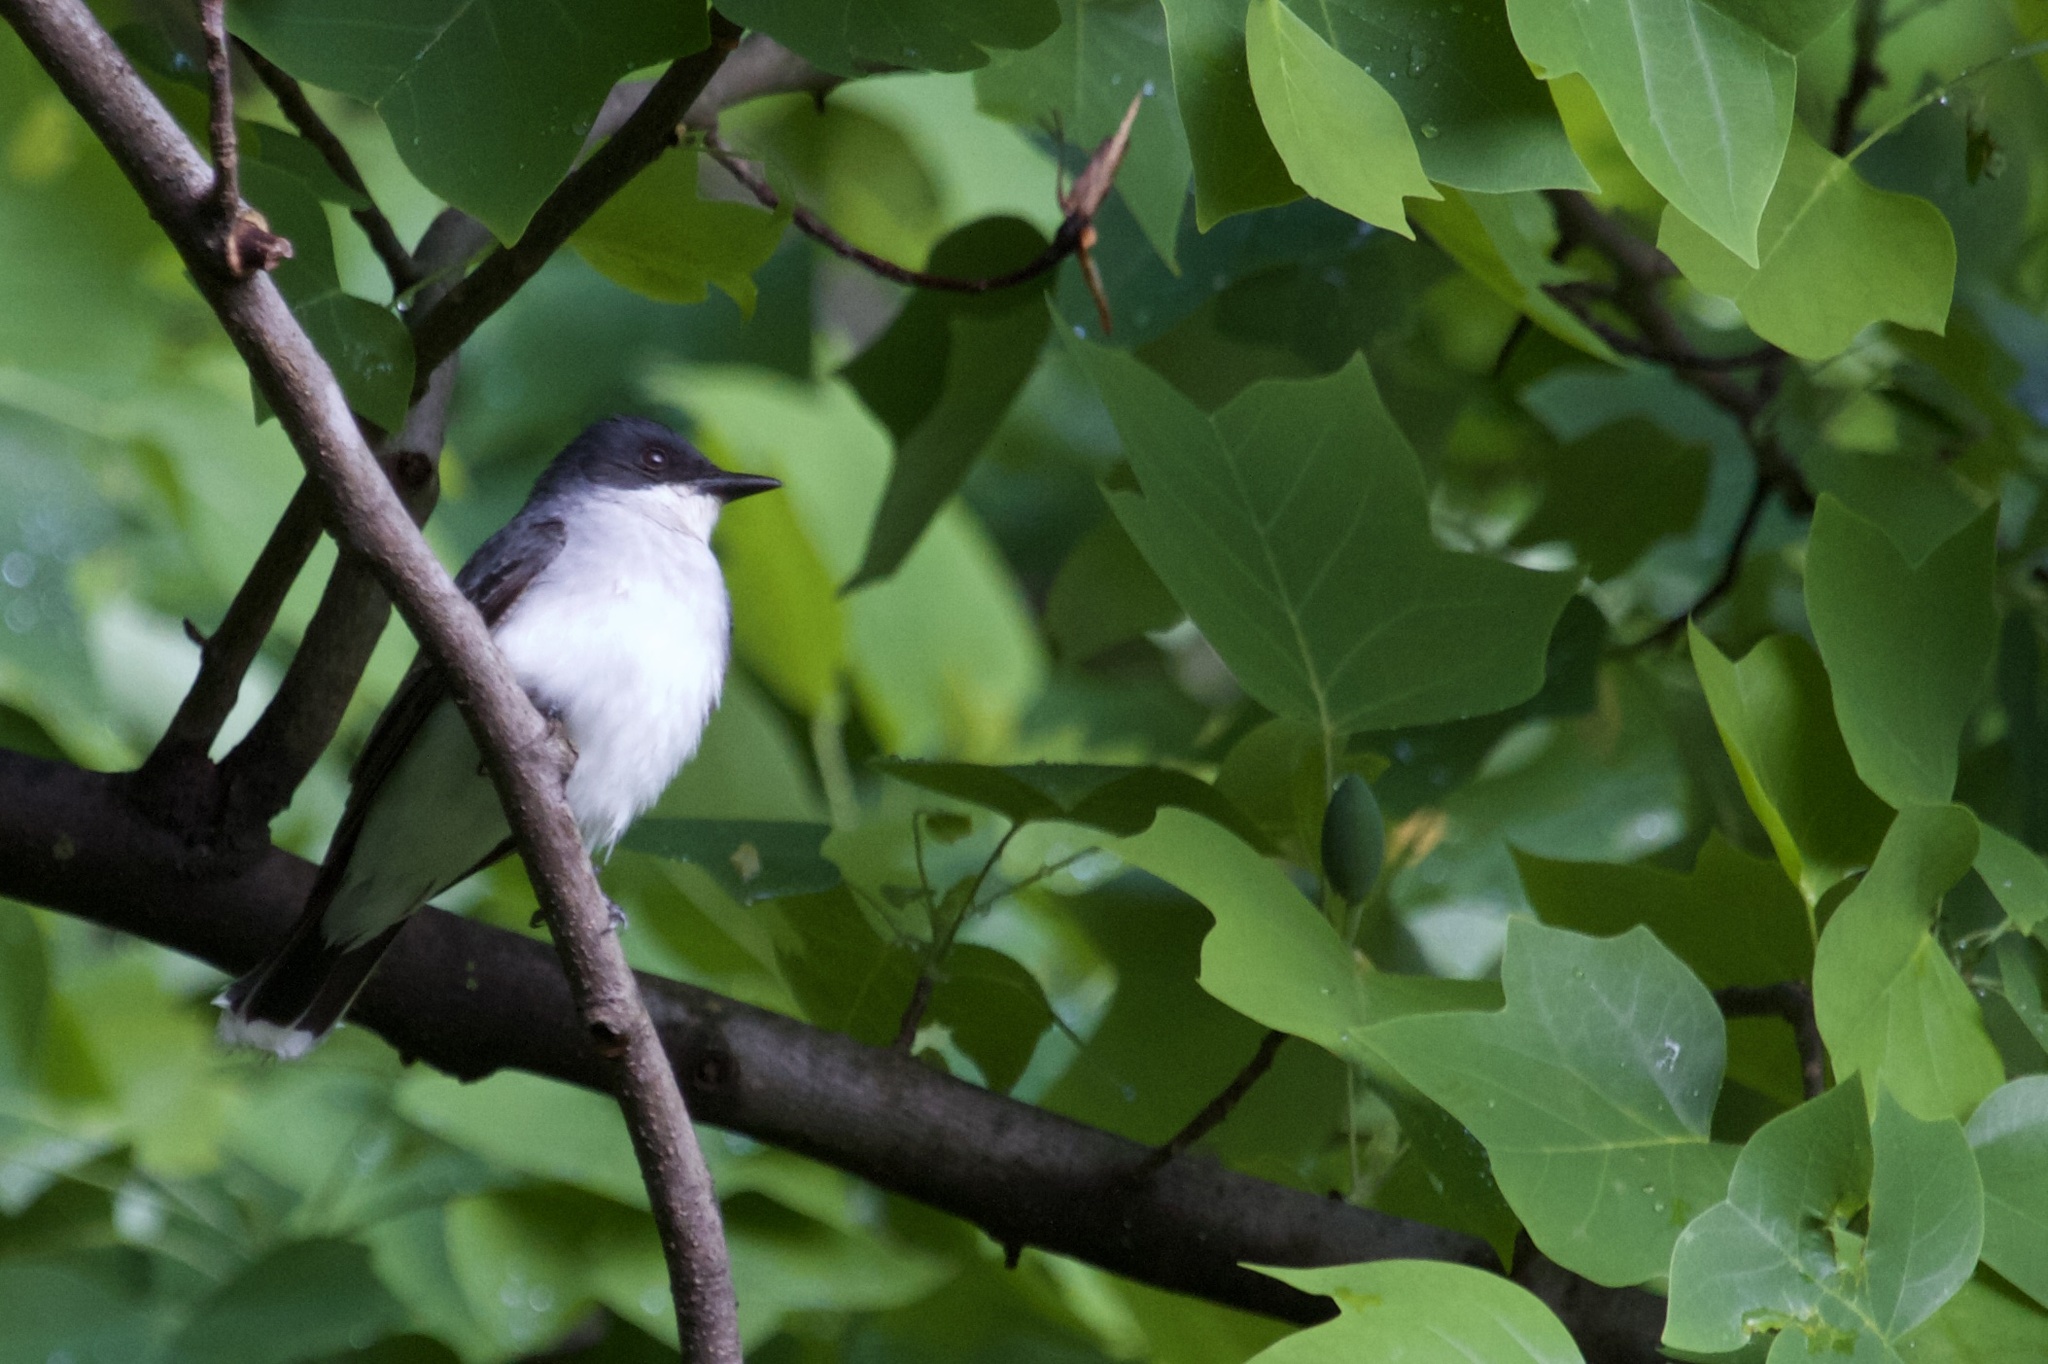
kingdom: Animalia
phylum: Chordata
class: Aves
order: Passeriformes
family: Tyrannidae
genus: Tyrannus
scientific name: Tyrannus tyrannus
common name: Eastern kingbird
